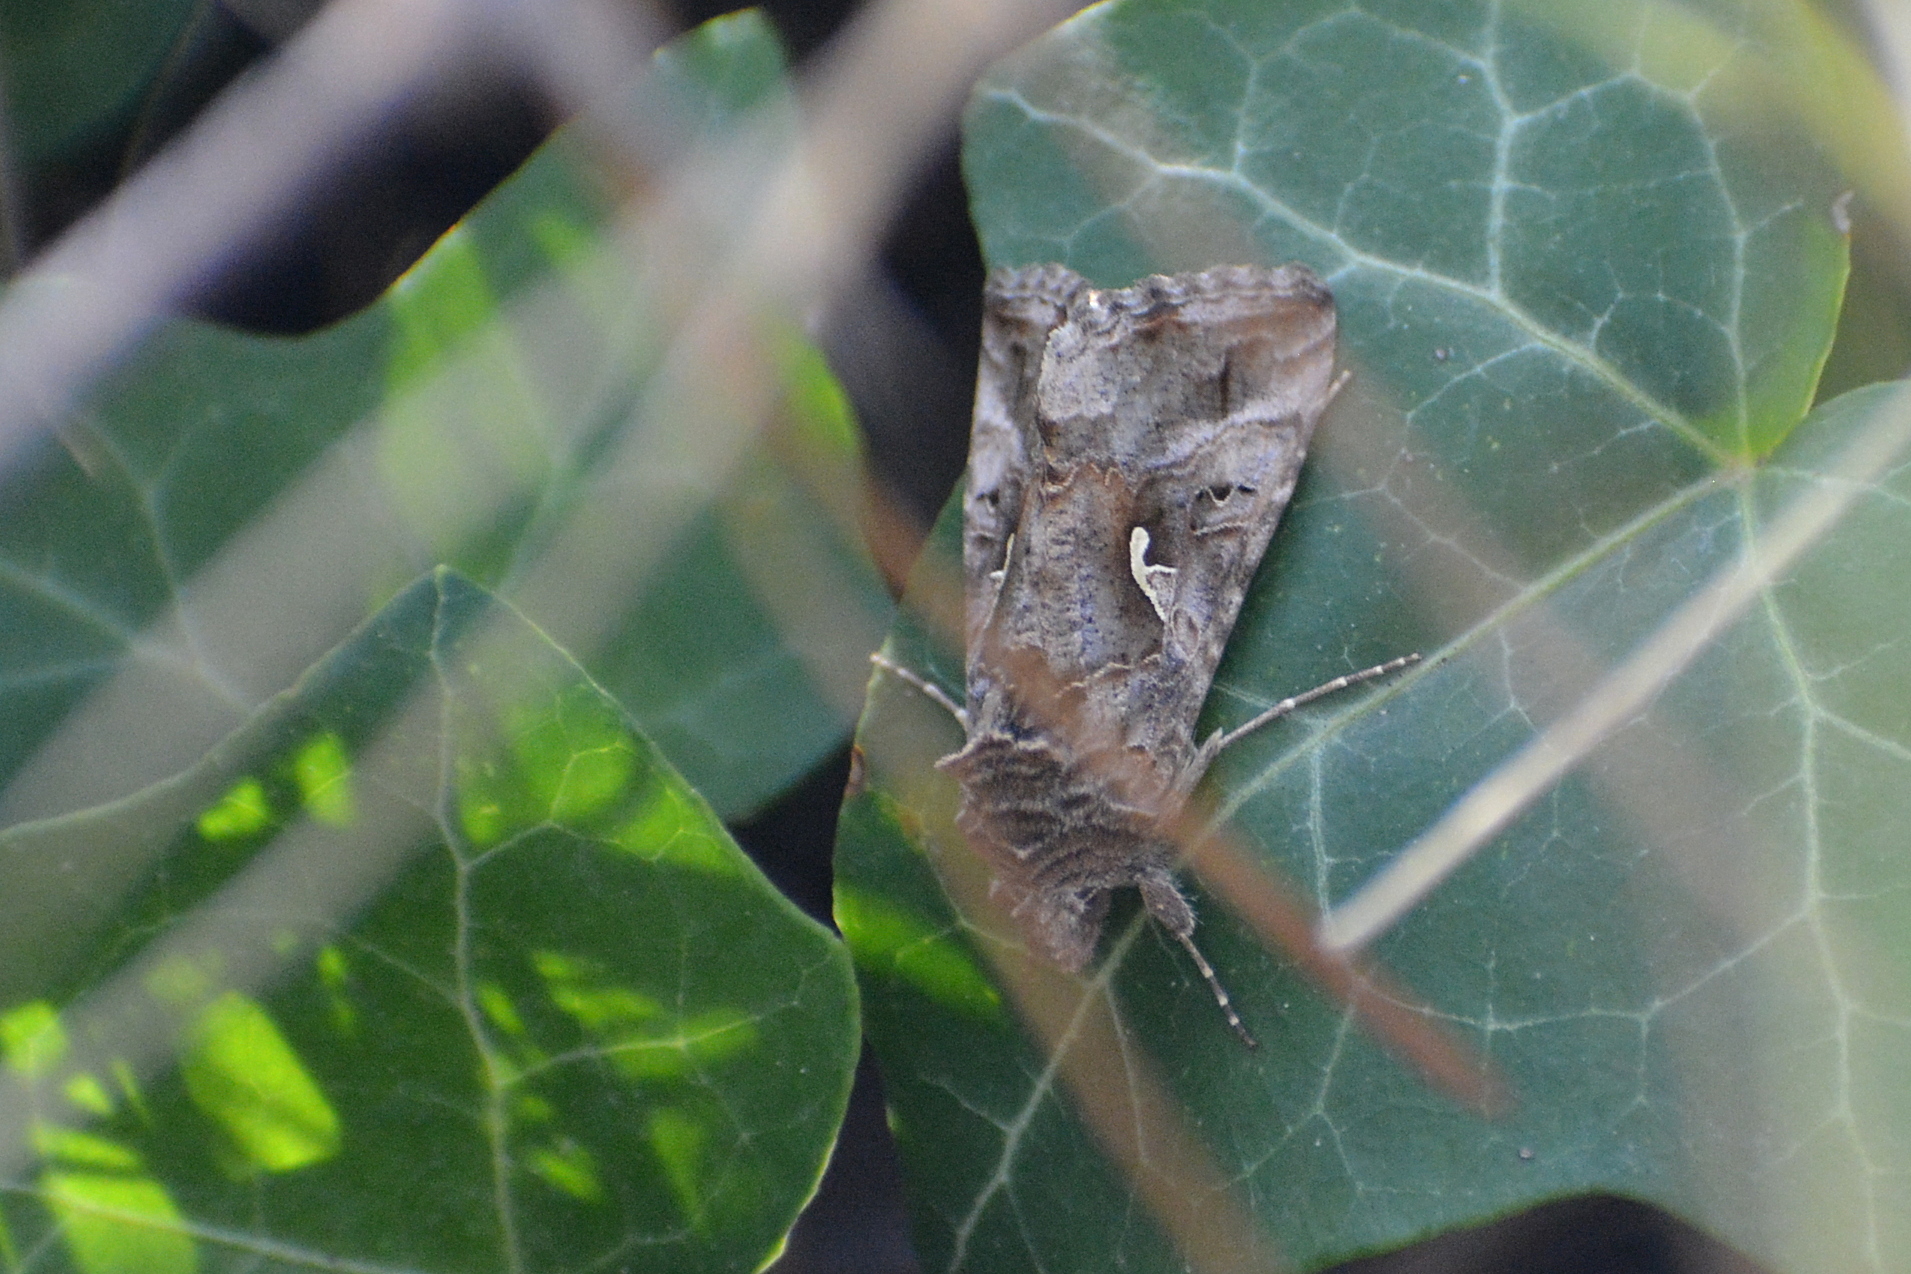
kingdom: Animalia
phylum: Arthropoda
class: Insecta
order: Lepidoptera
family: Noctuidae
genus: Autographa
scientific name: Autographa gamma
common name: Silver y
